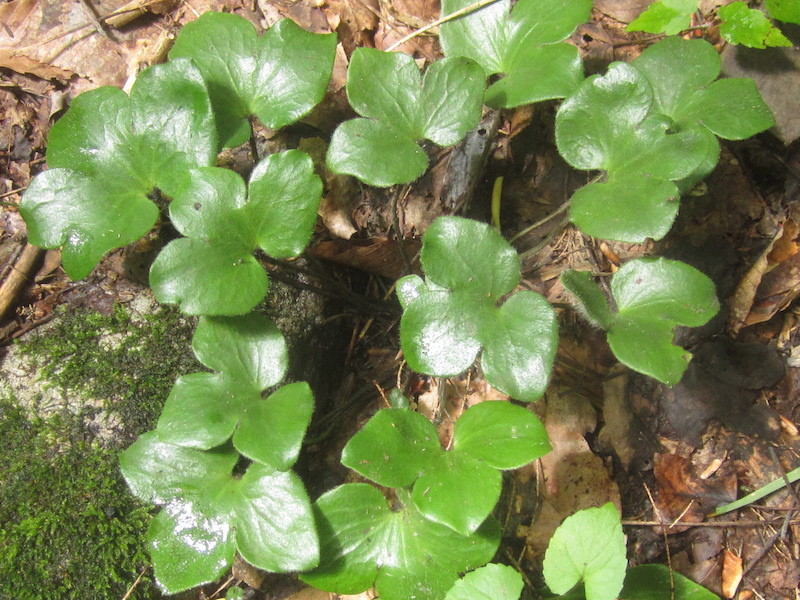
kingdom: Plantae
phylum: Tracheophyta
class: Magnoliopsida
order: Ranunculales
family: Ranunculaceae
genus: Hepatica
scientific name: Hepatica acutiloba
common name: Sharp-lobed hepatica
